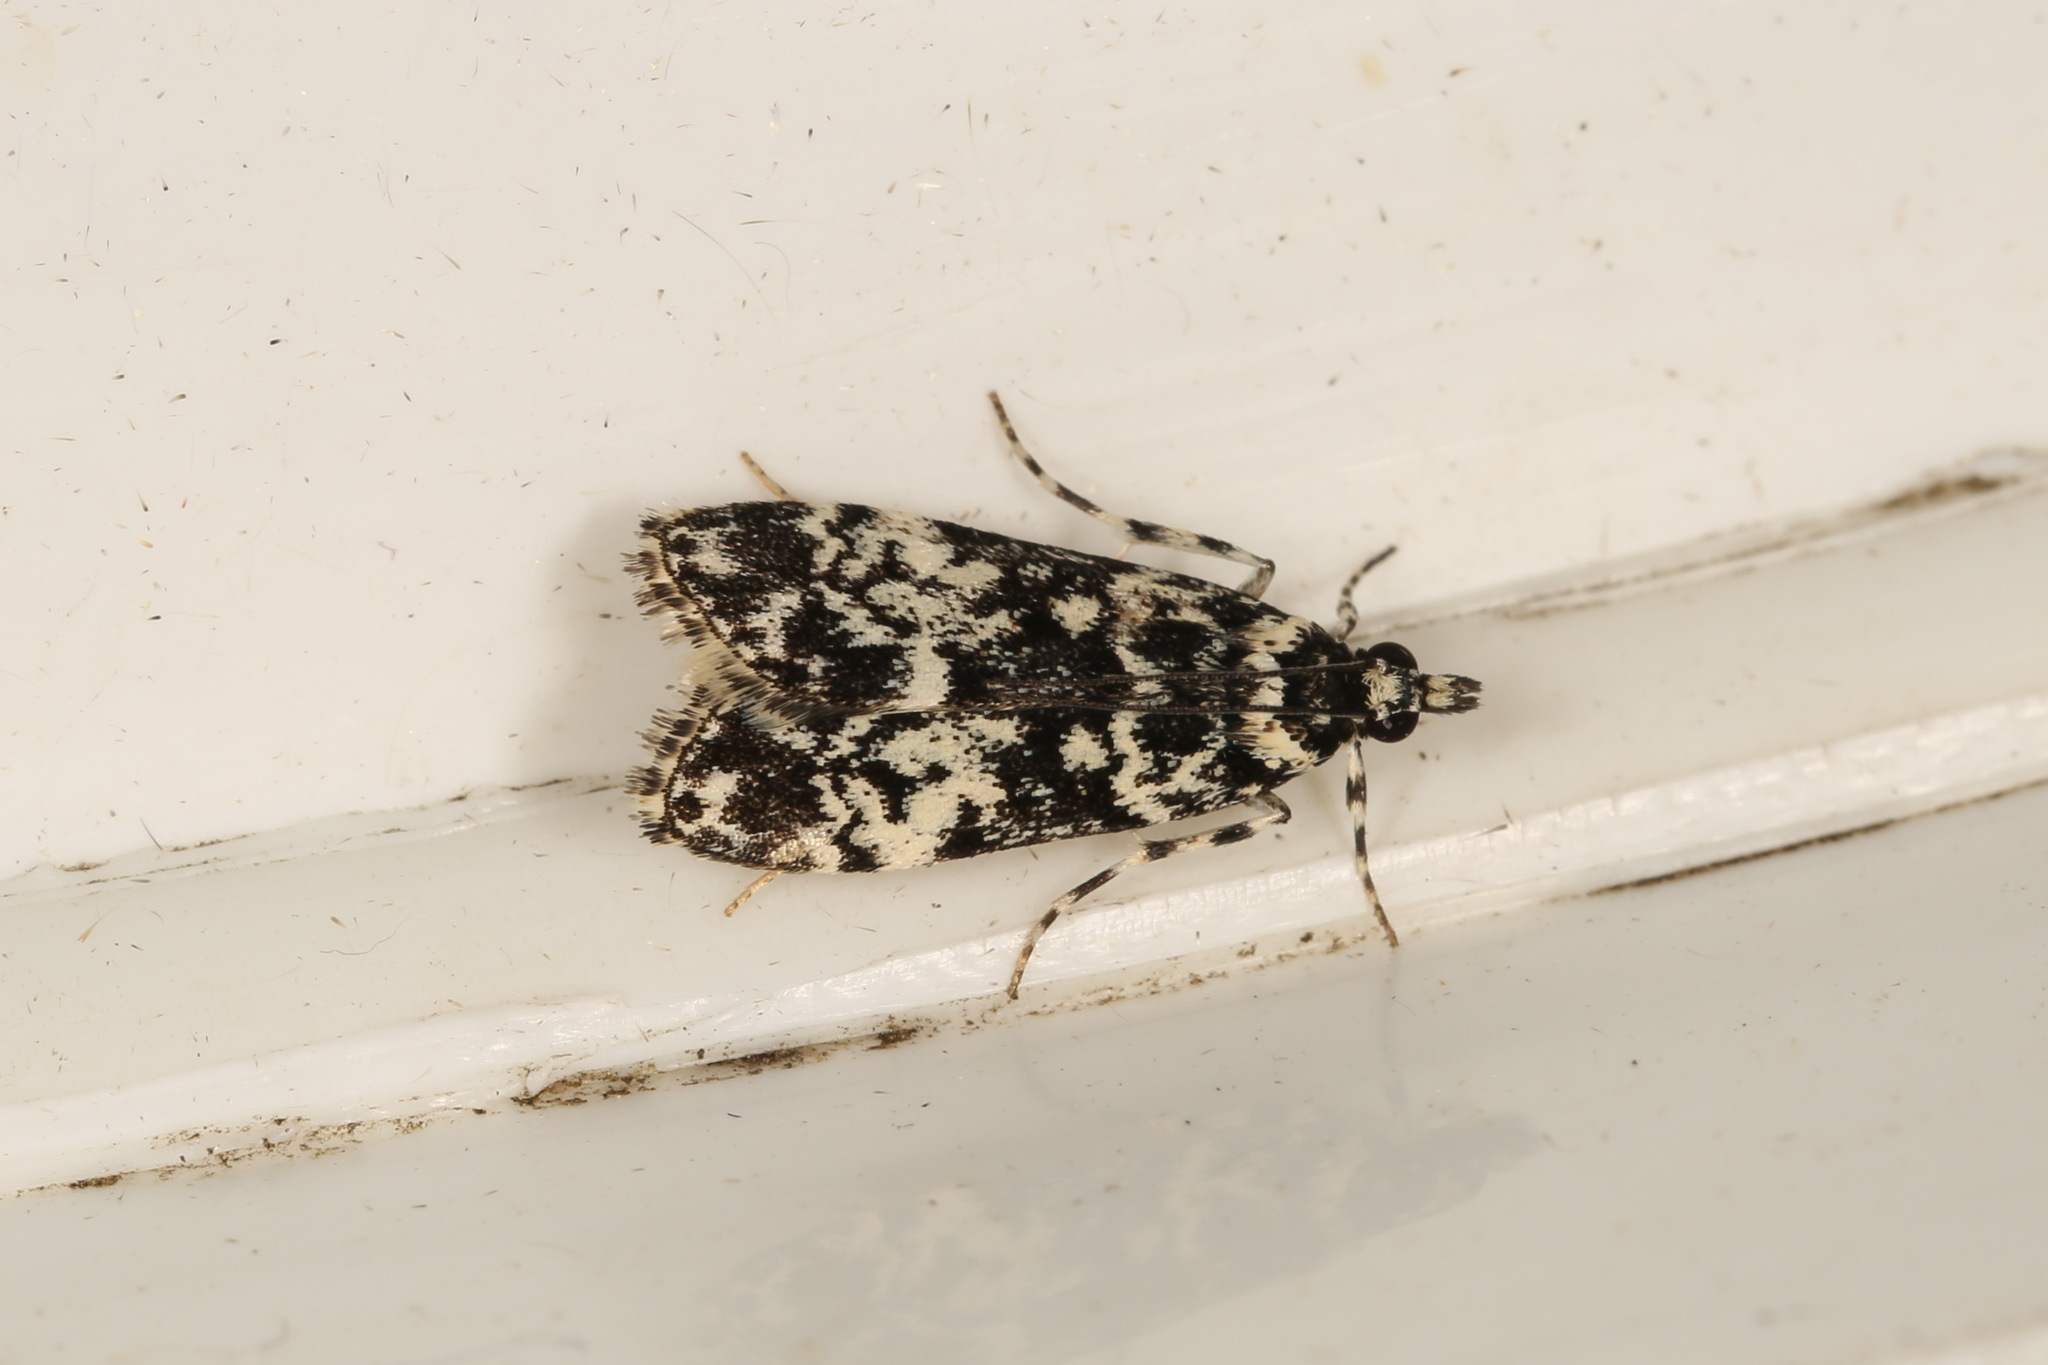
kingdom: Animalia
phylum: Arthropoda
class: Insecta
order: Lepidoptera
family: Crambidae
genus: Scoparia
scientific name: Scoparia exhibitalis
